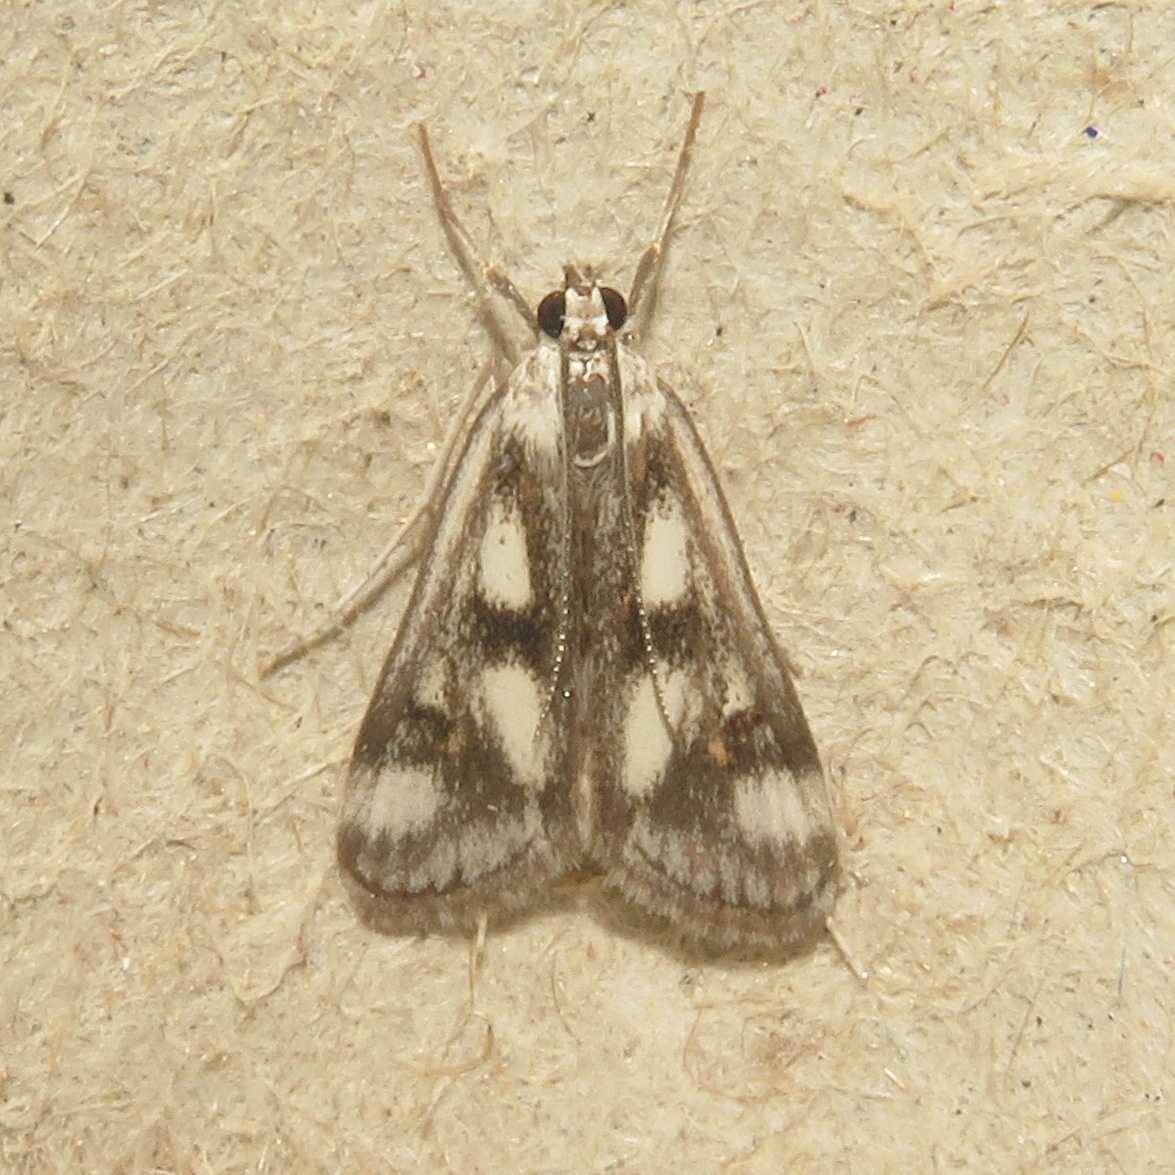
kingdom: Animalia
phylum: Arthropoda
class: Insecta
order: Lepidoptera
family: Crambidae
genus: Parapoynx
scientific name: Parapoynx maculalis
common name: Polymorphic pondweed moth
